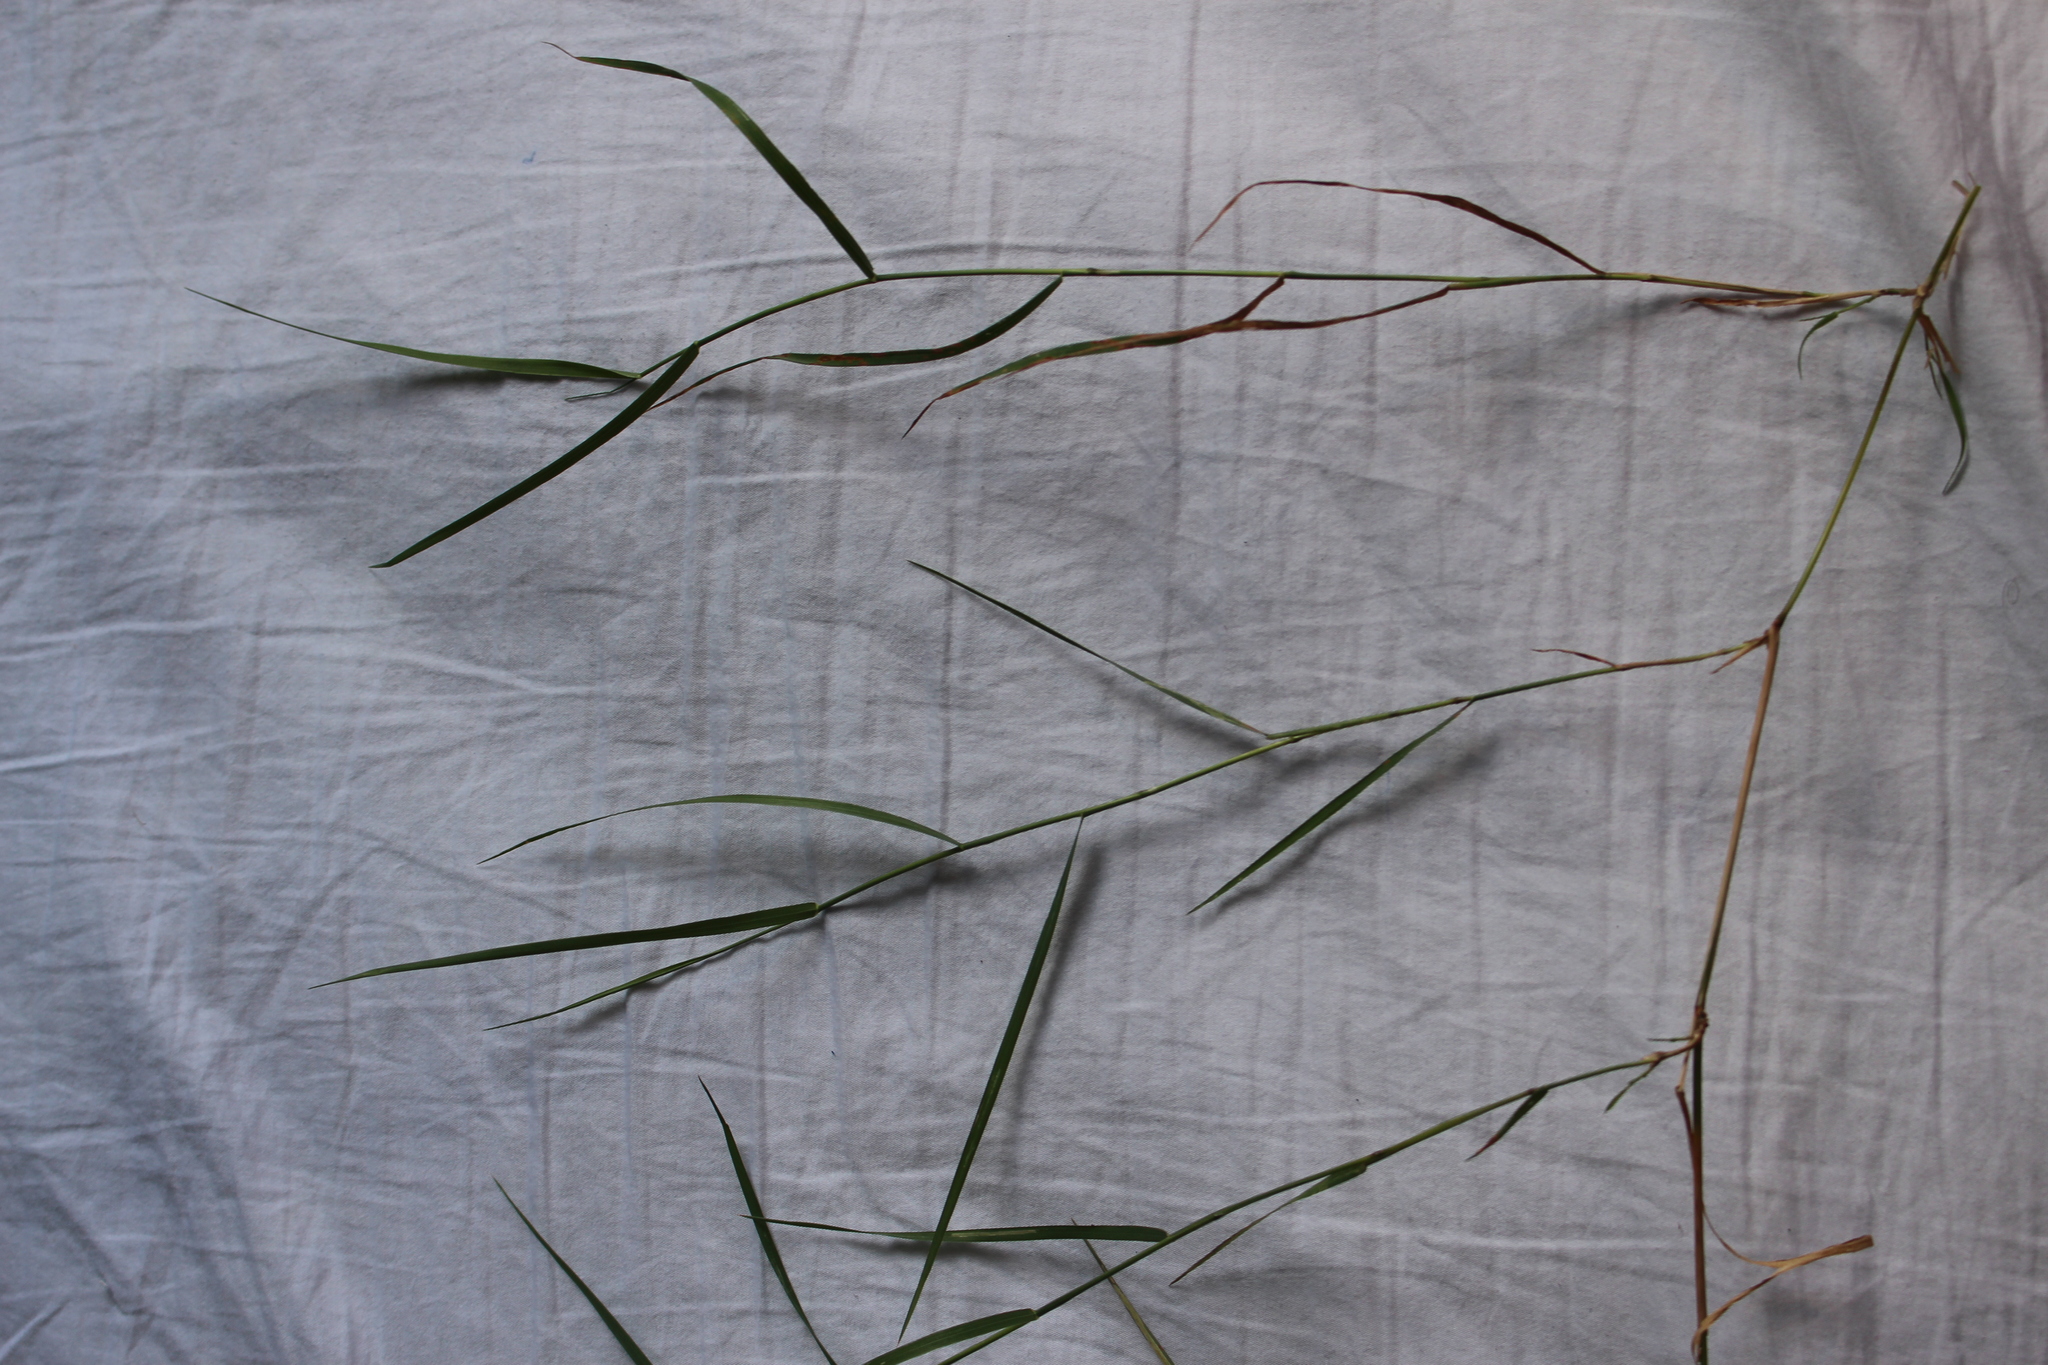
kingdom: Plantae
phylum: Tracheophyta
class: Liliopsida
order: Poales
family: Poaceae
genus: Agrostis
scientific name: Agrostis capillaris
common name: Colonial bentgrass
